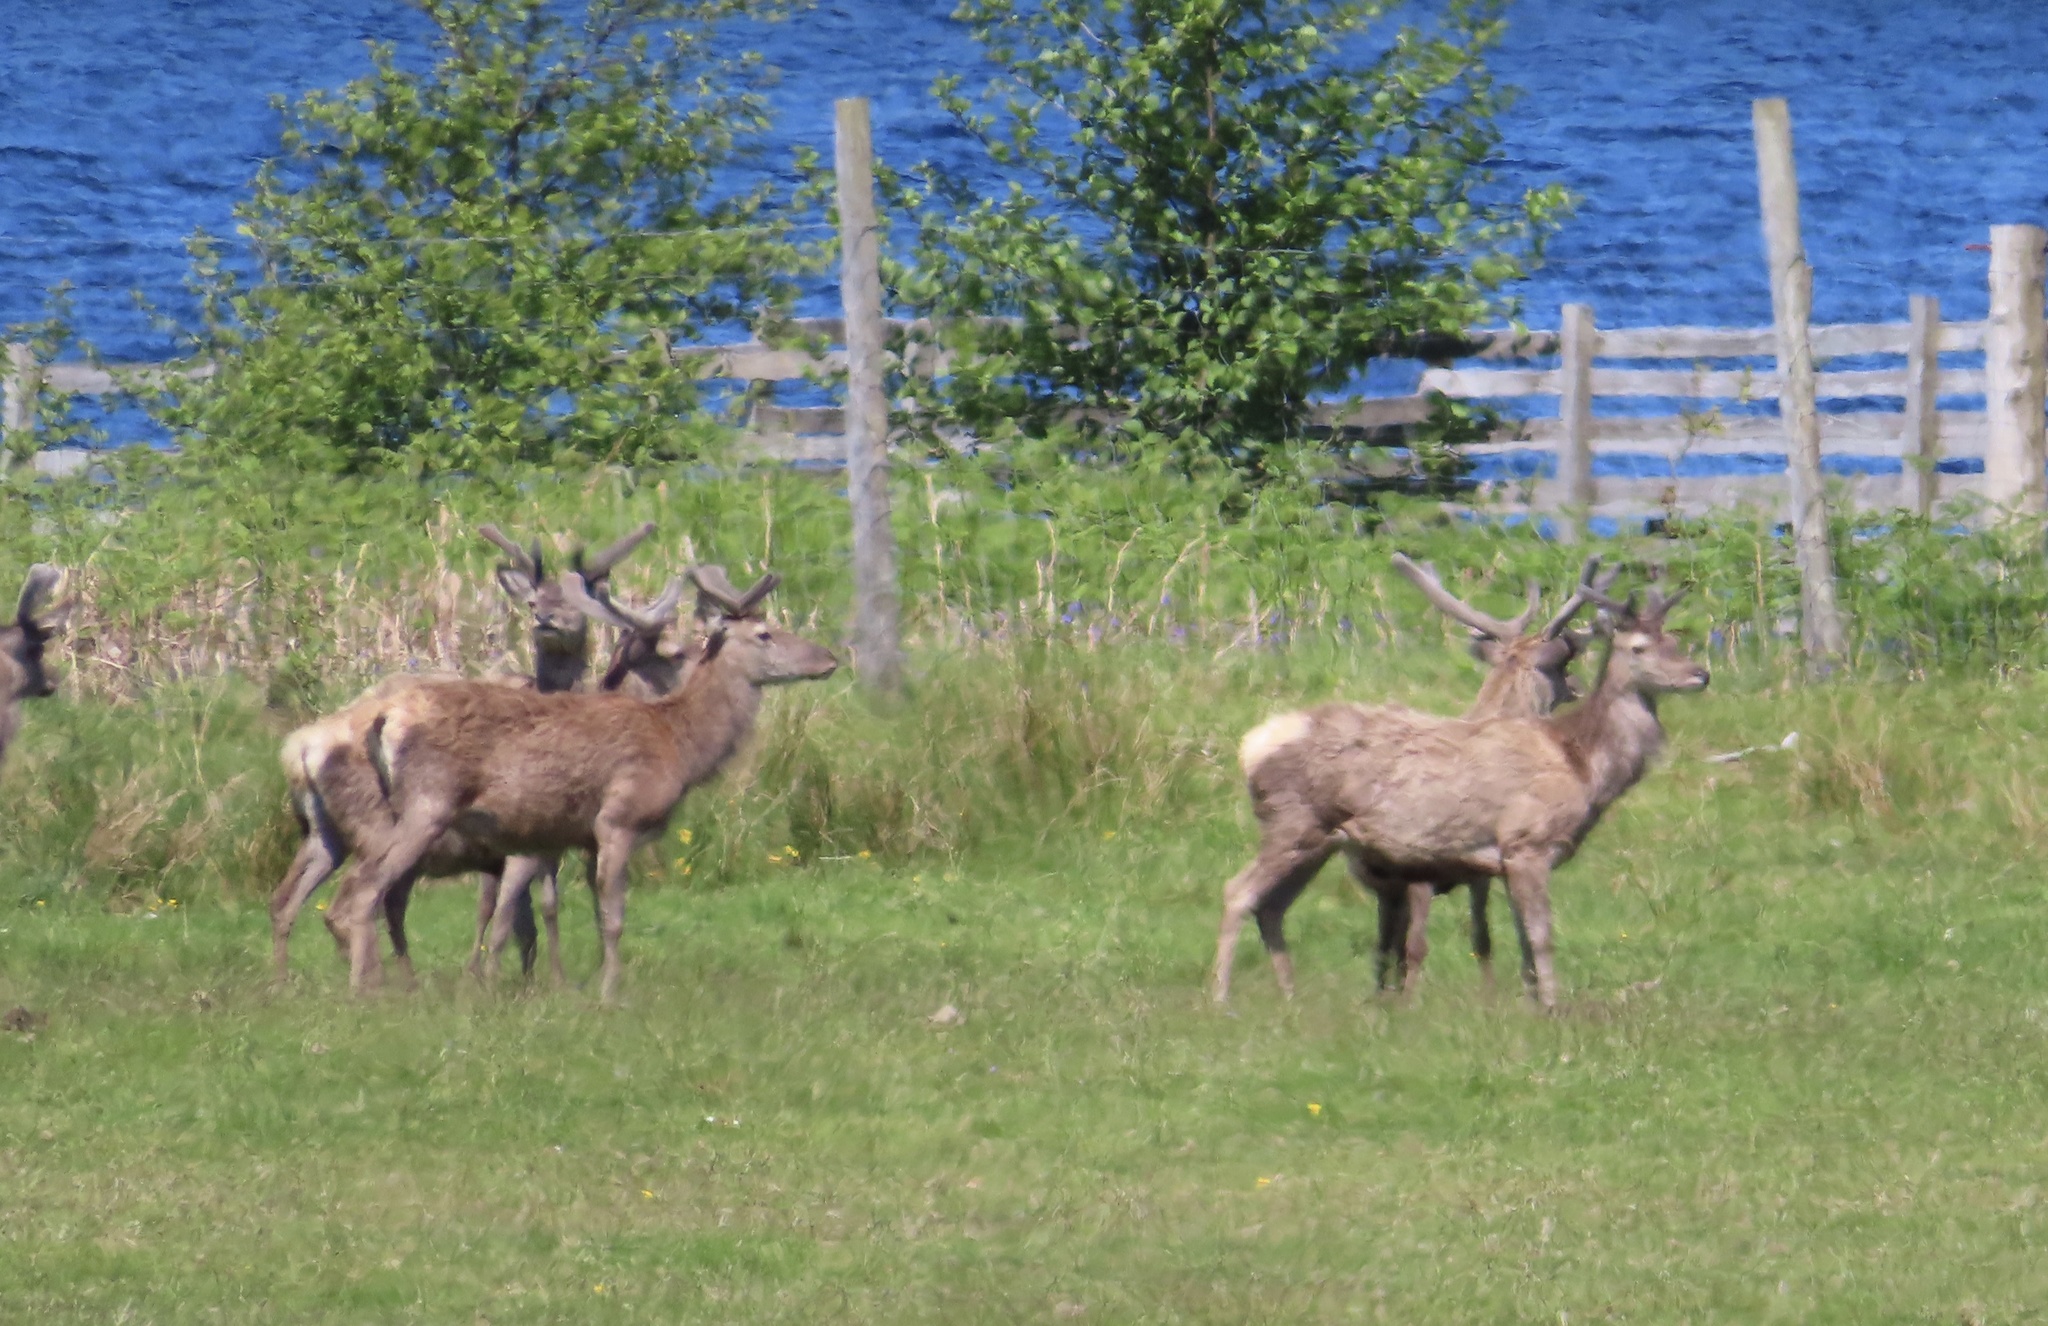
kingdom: Animalia
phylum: Chordata
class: Mammalia
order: Artiodactyla
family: Cervidae
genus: Cervus
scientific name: Cervus elaphus
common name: Red deer
